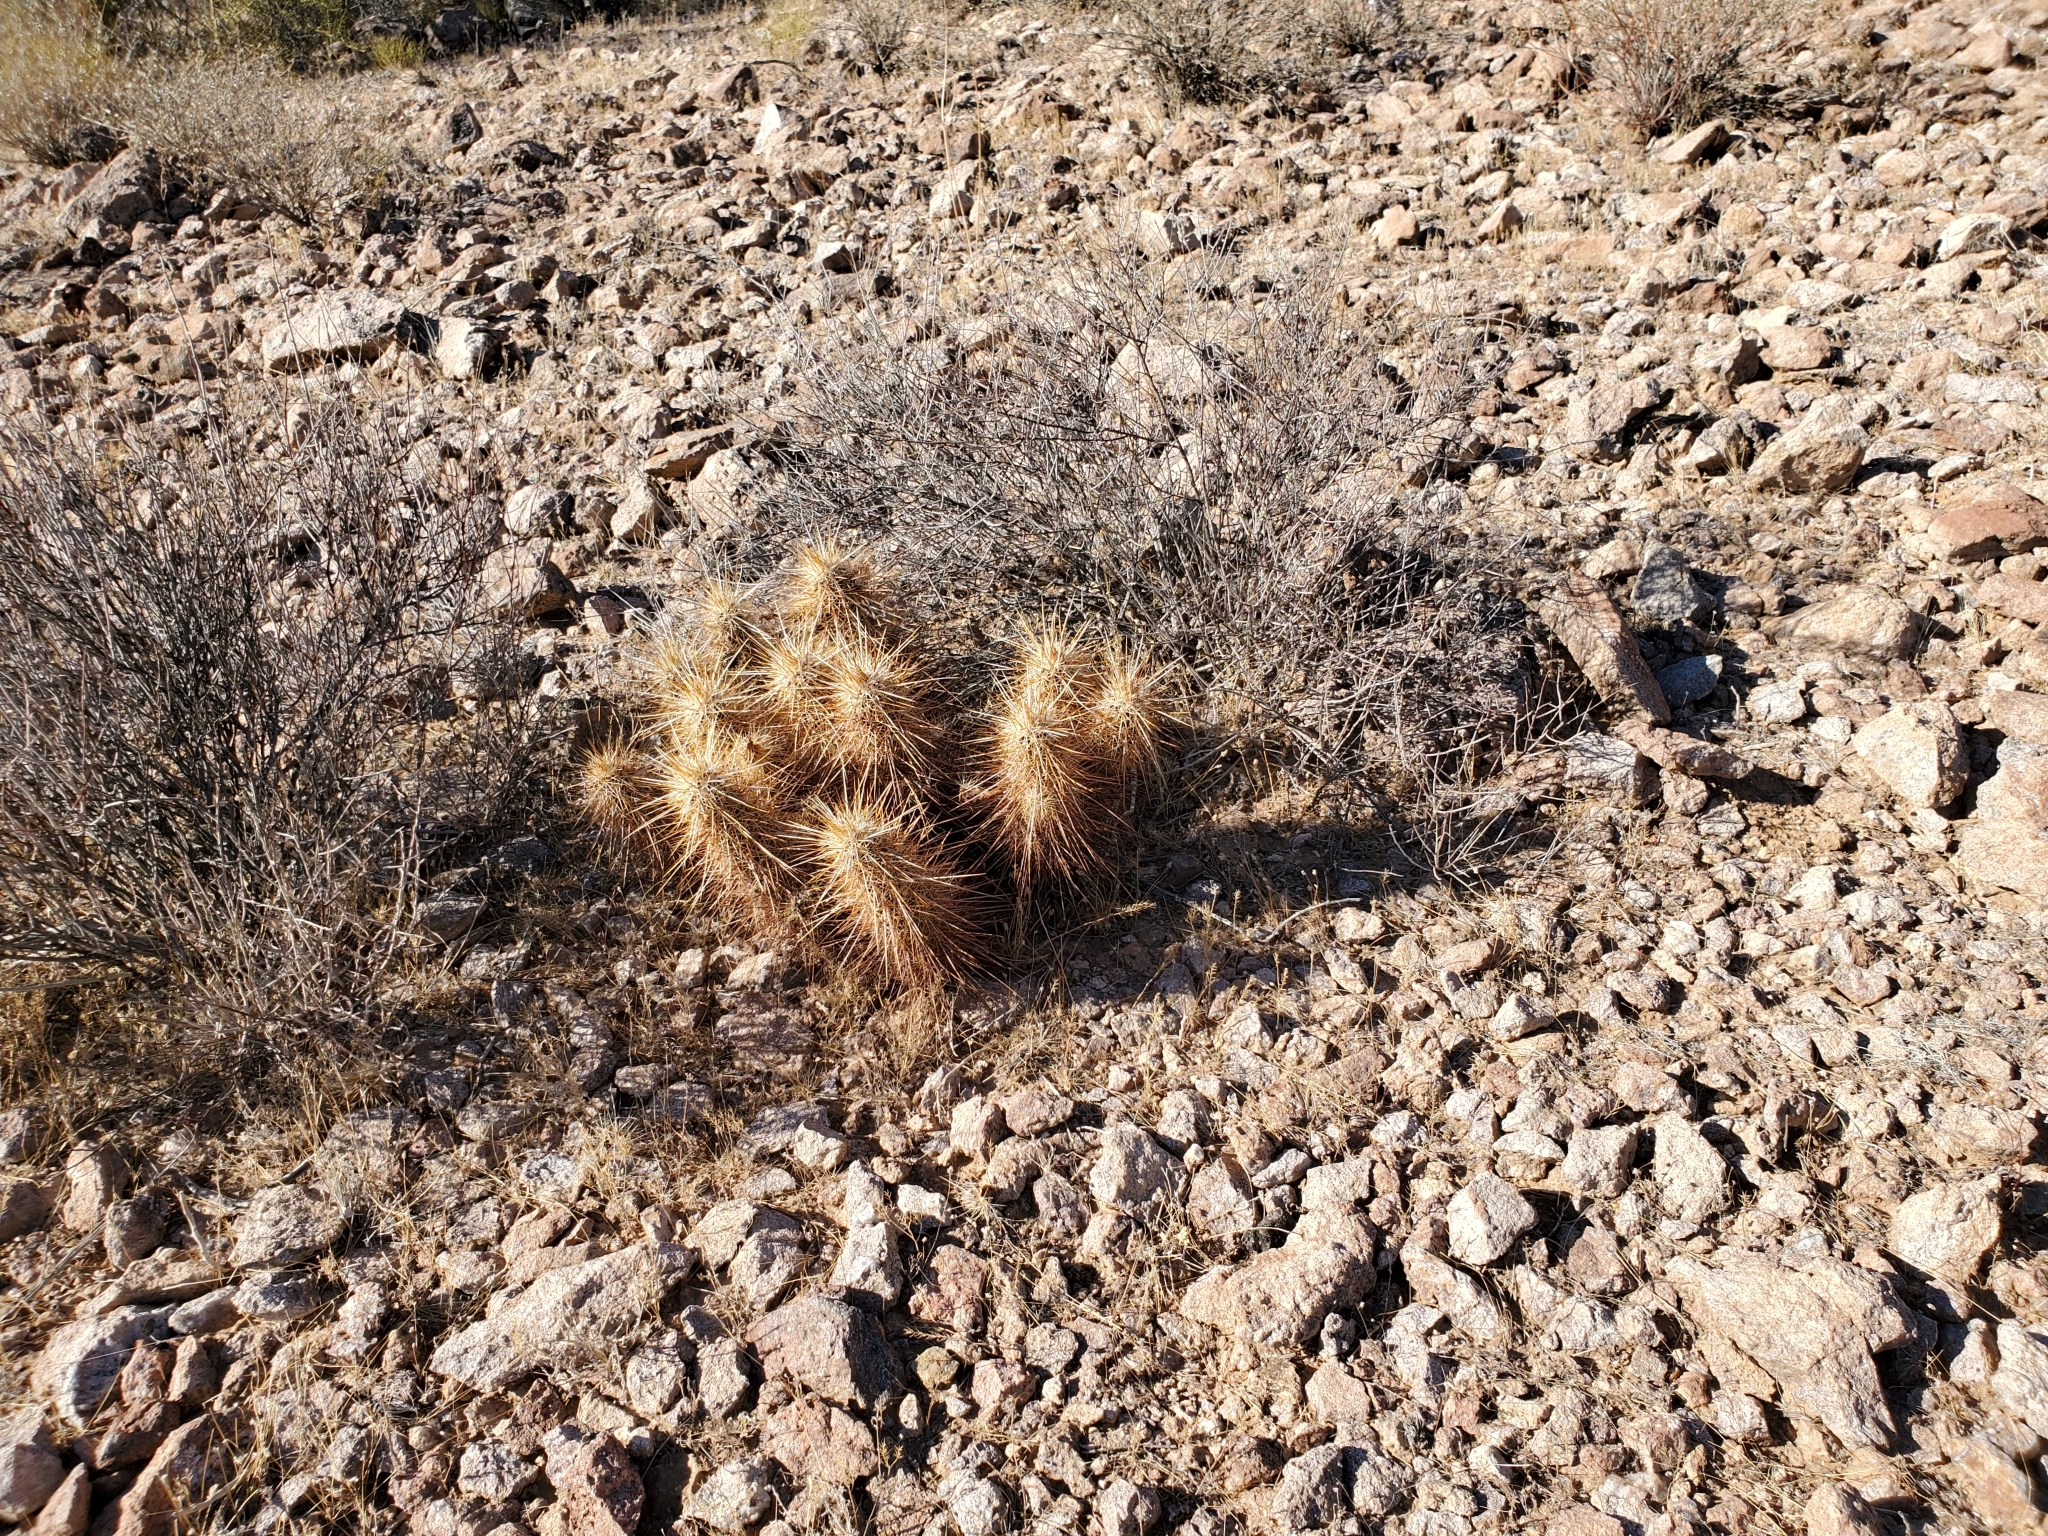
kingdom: Plantae
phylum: Tracheophyta
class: Magnoliopsida
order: Caryophyllales
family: Cactaceae
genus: Echinocereus
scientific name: Echinocereus engelmannii
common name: Engelmann's hedgehog cactus
